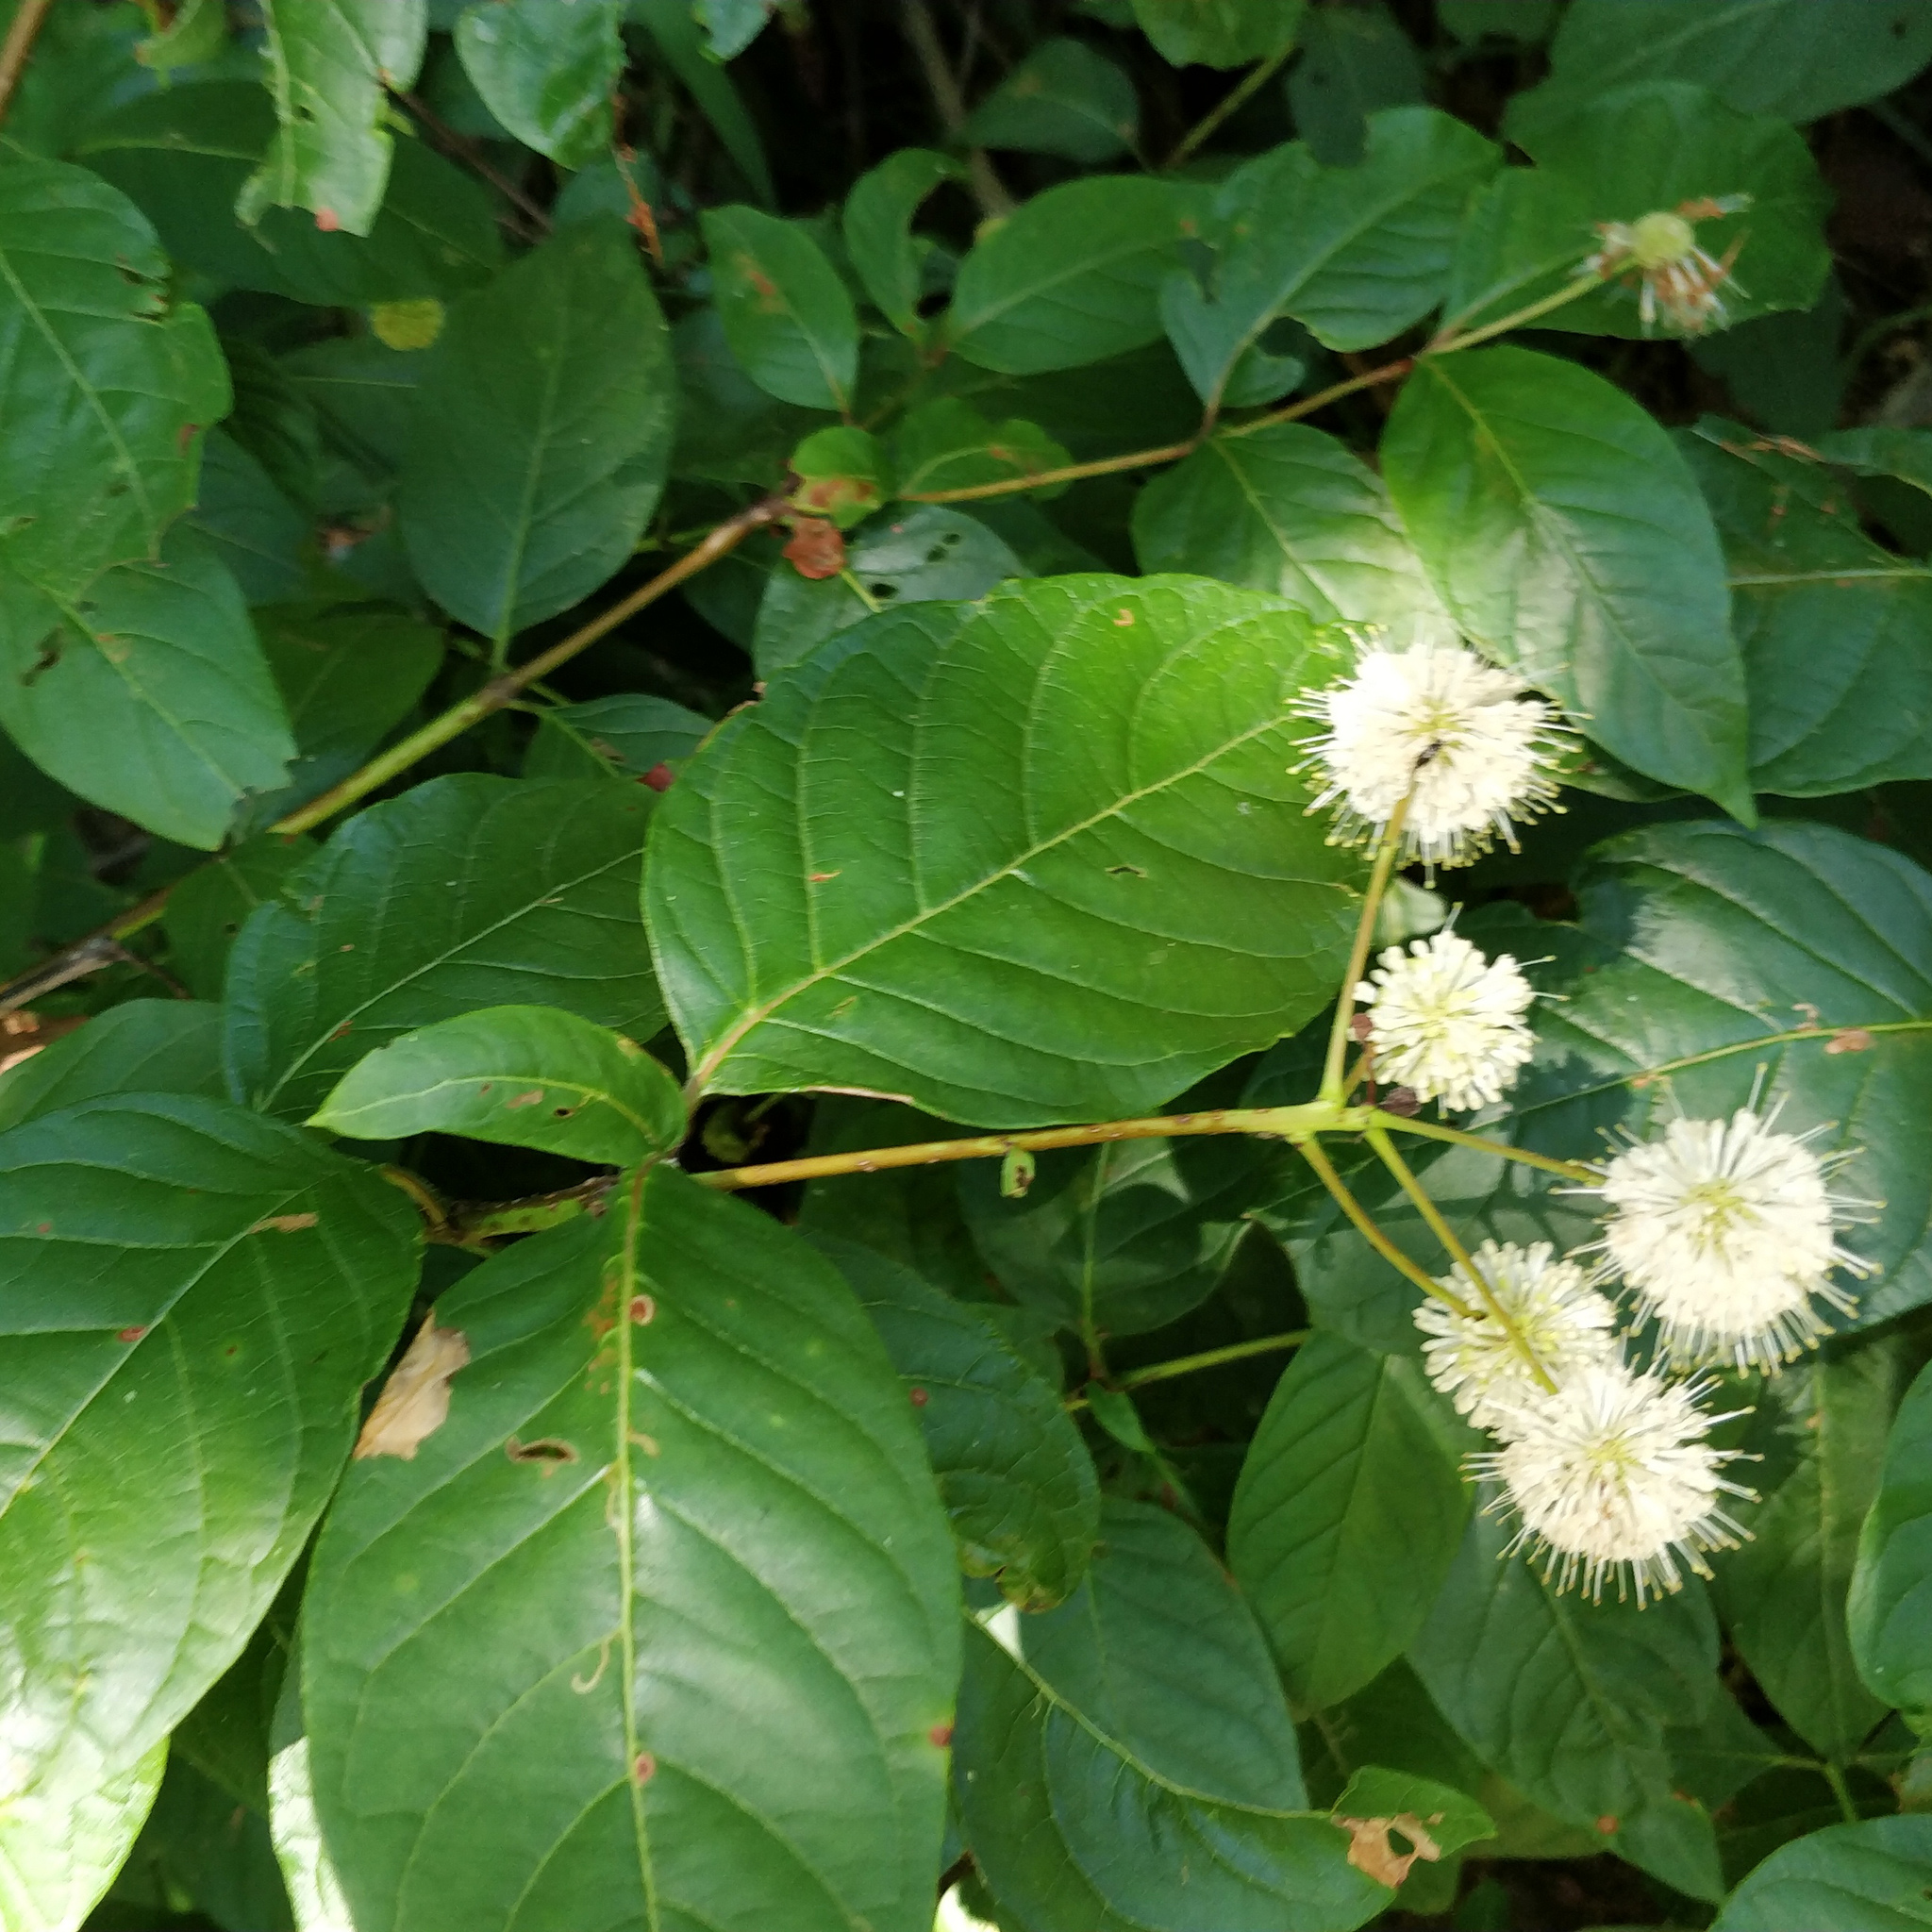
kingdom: Plantae
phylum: Tracheophyta
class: Magnoliopsida
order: Gentianales
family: Rubiaceae
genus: Cephalanthus
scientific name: Cephalanthus occidentalis
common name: Button-willow
